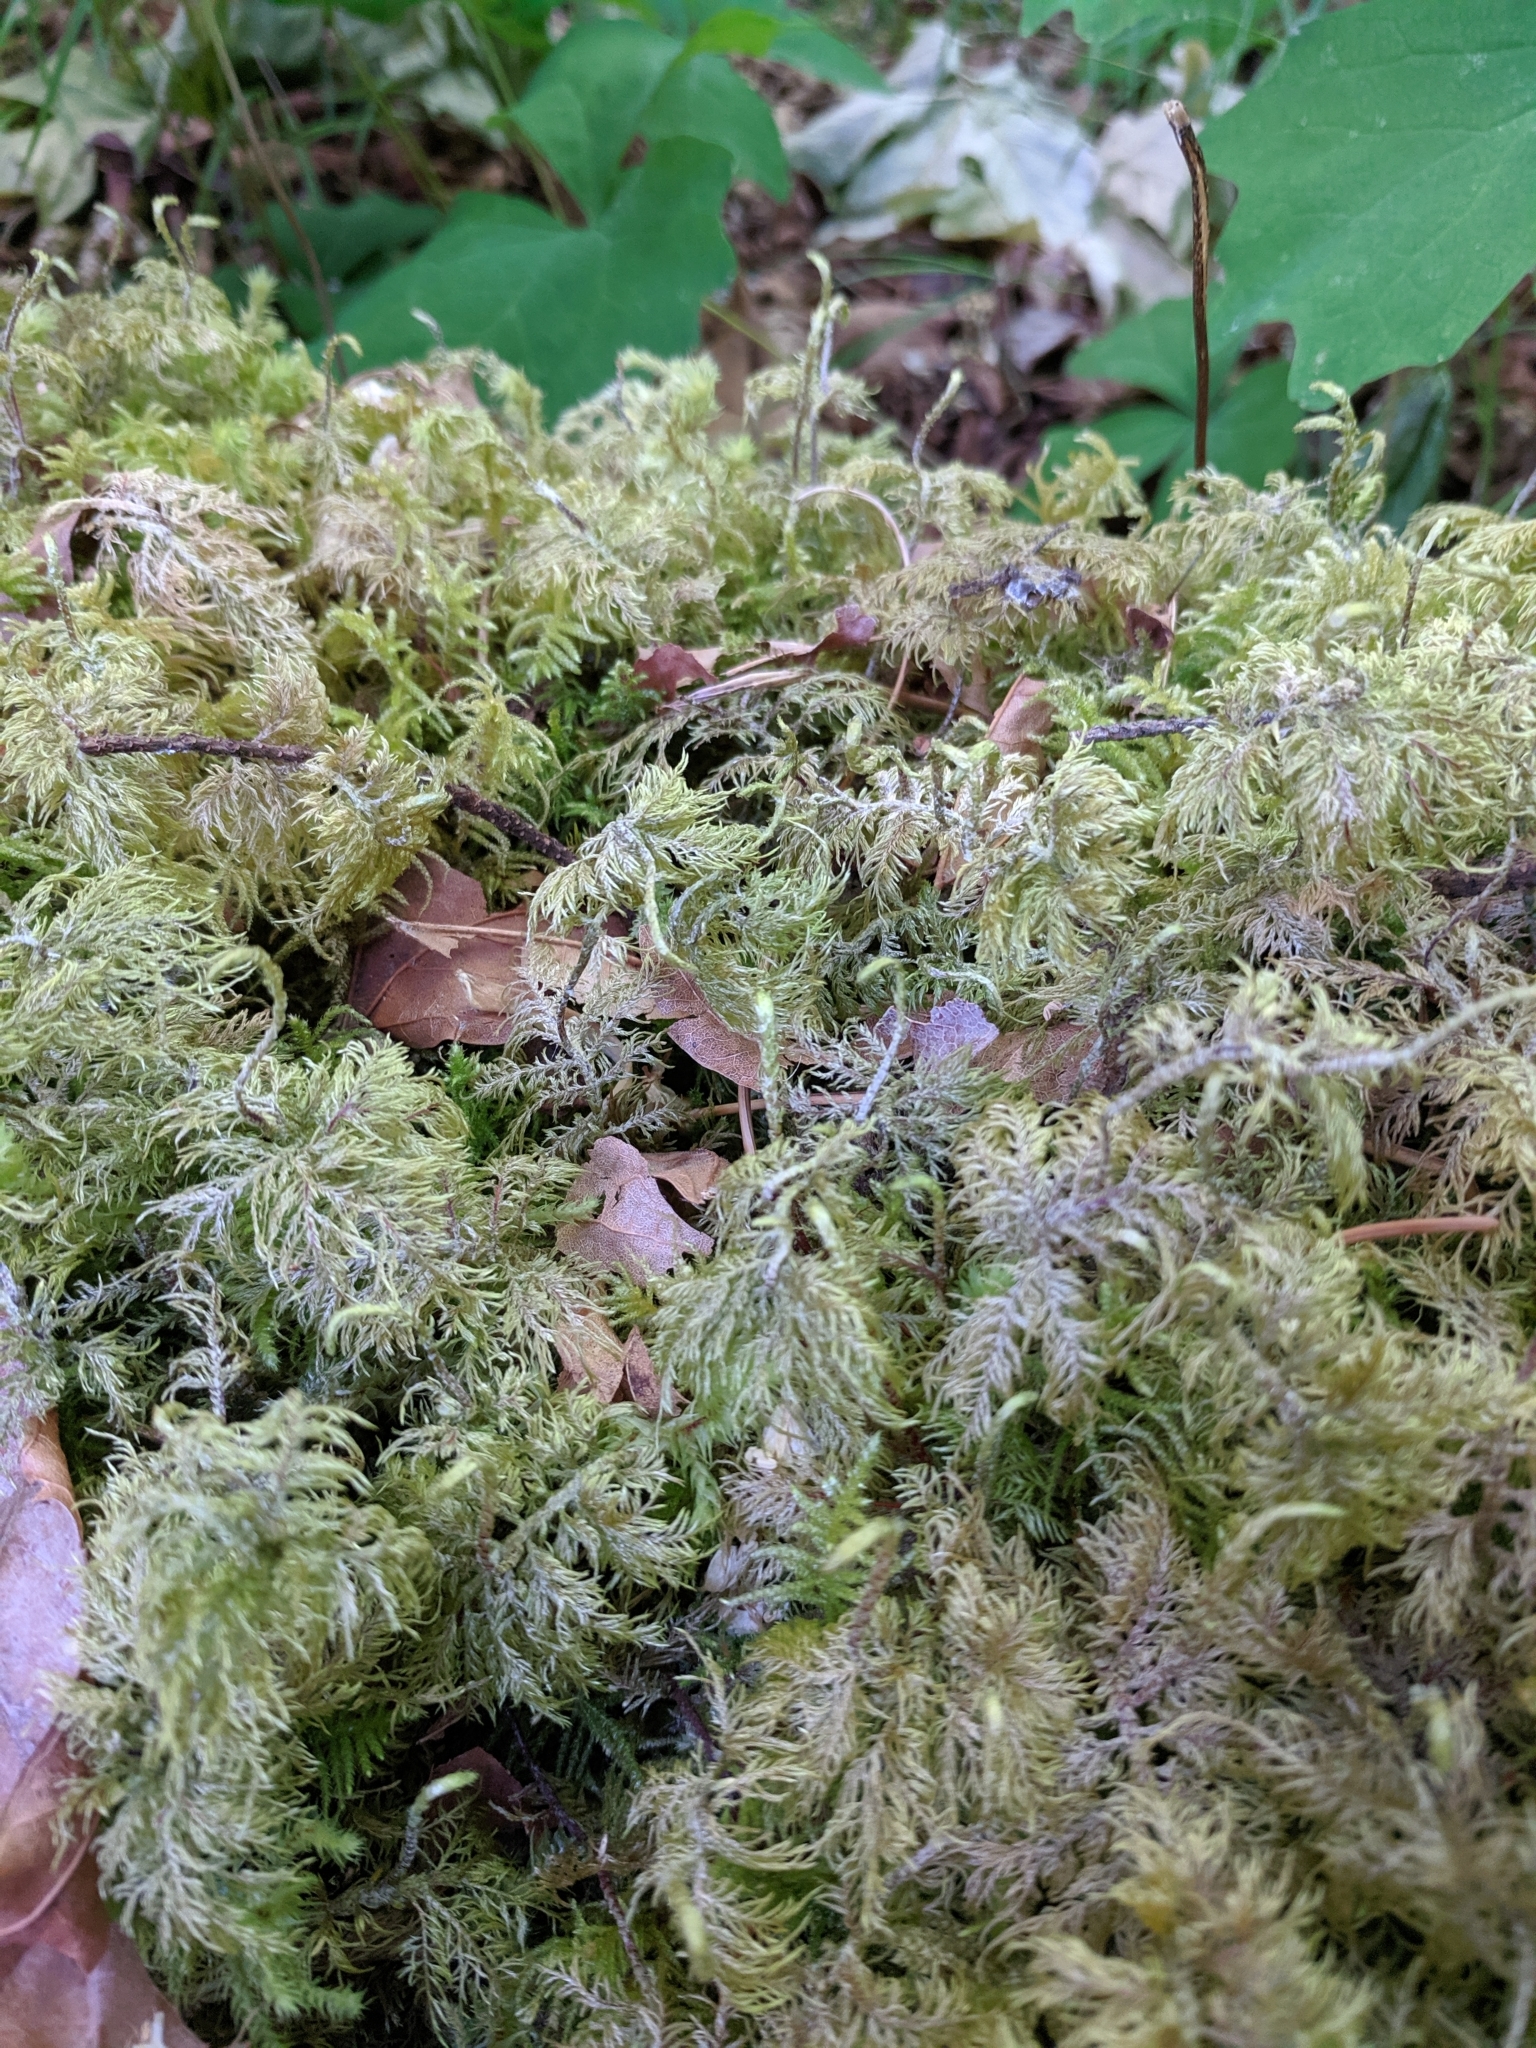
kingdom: Plantae
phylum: Bryophyta
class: Bryopsida
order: Hypnales
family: Hylocomiaceae
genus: Hylocomium
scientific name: Hylocomium splendens
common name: Stairstep moss
